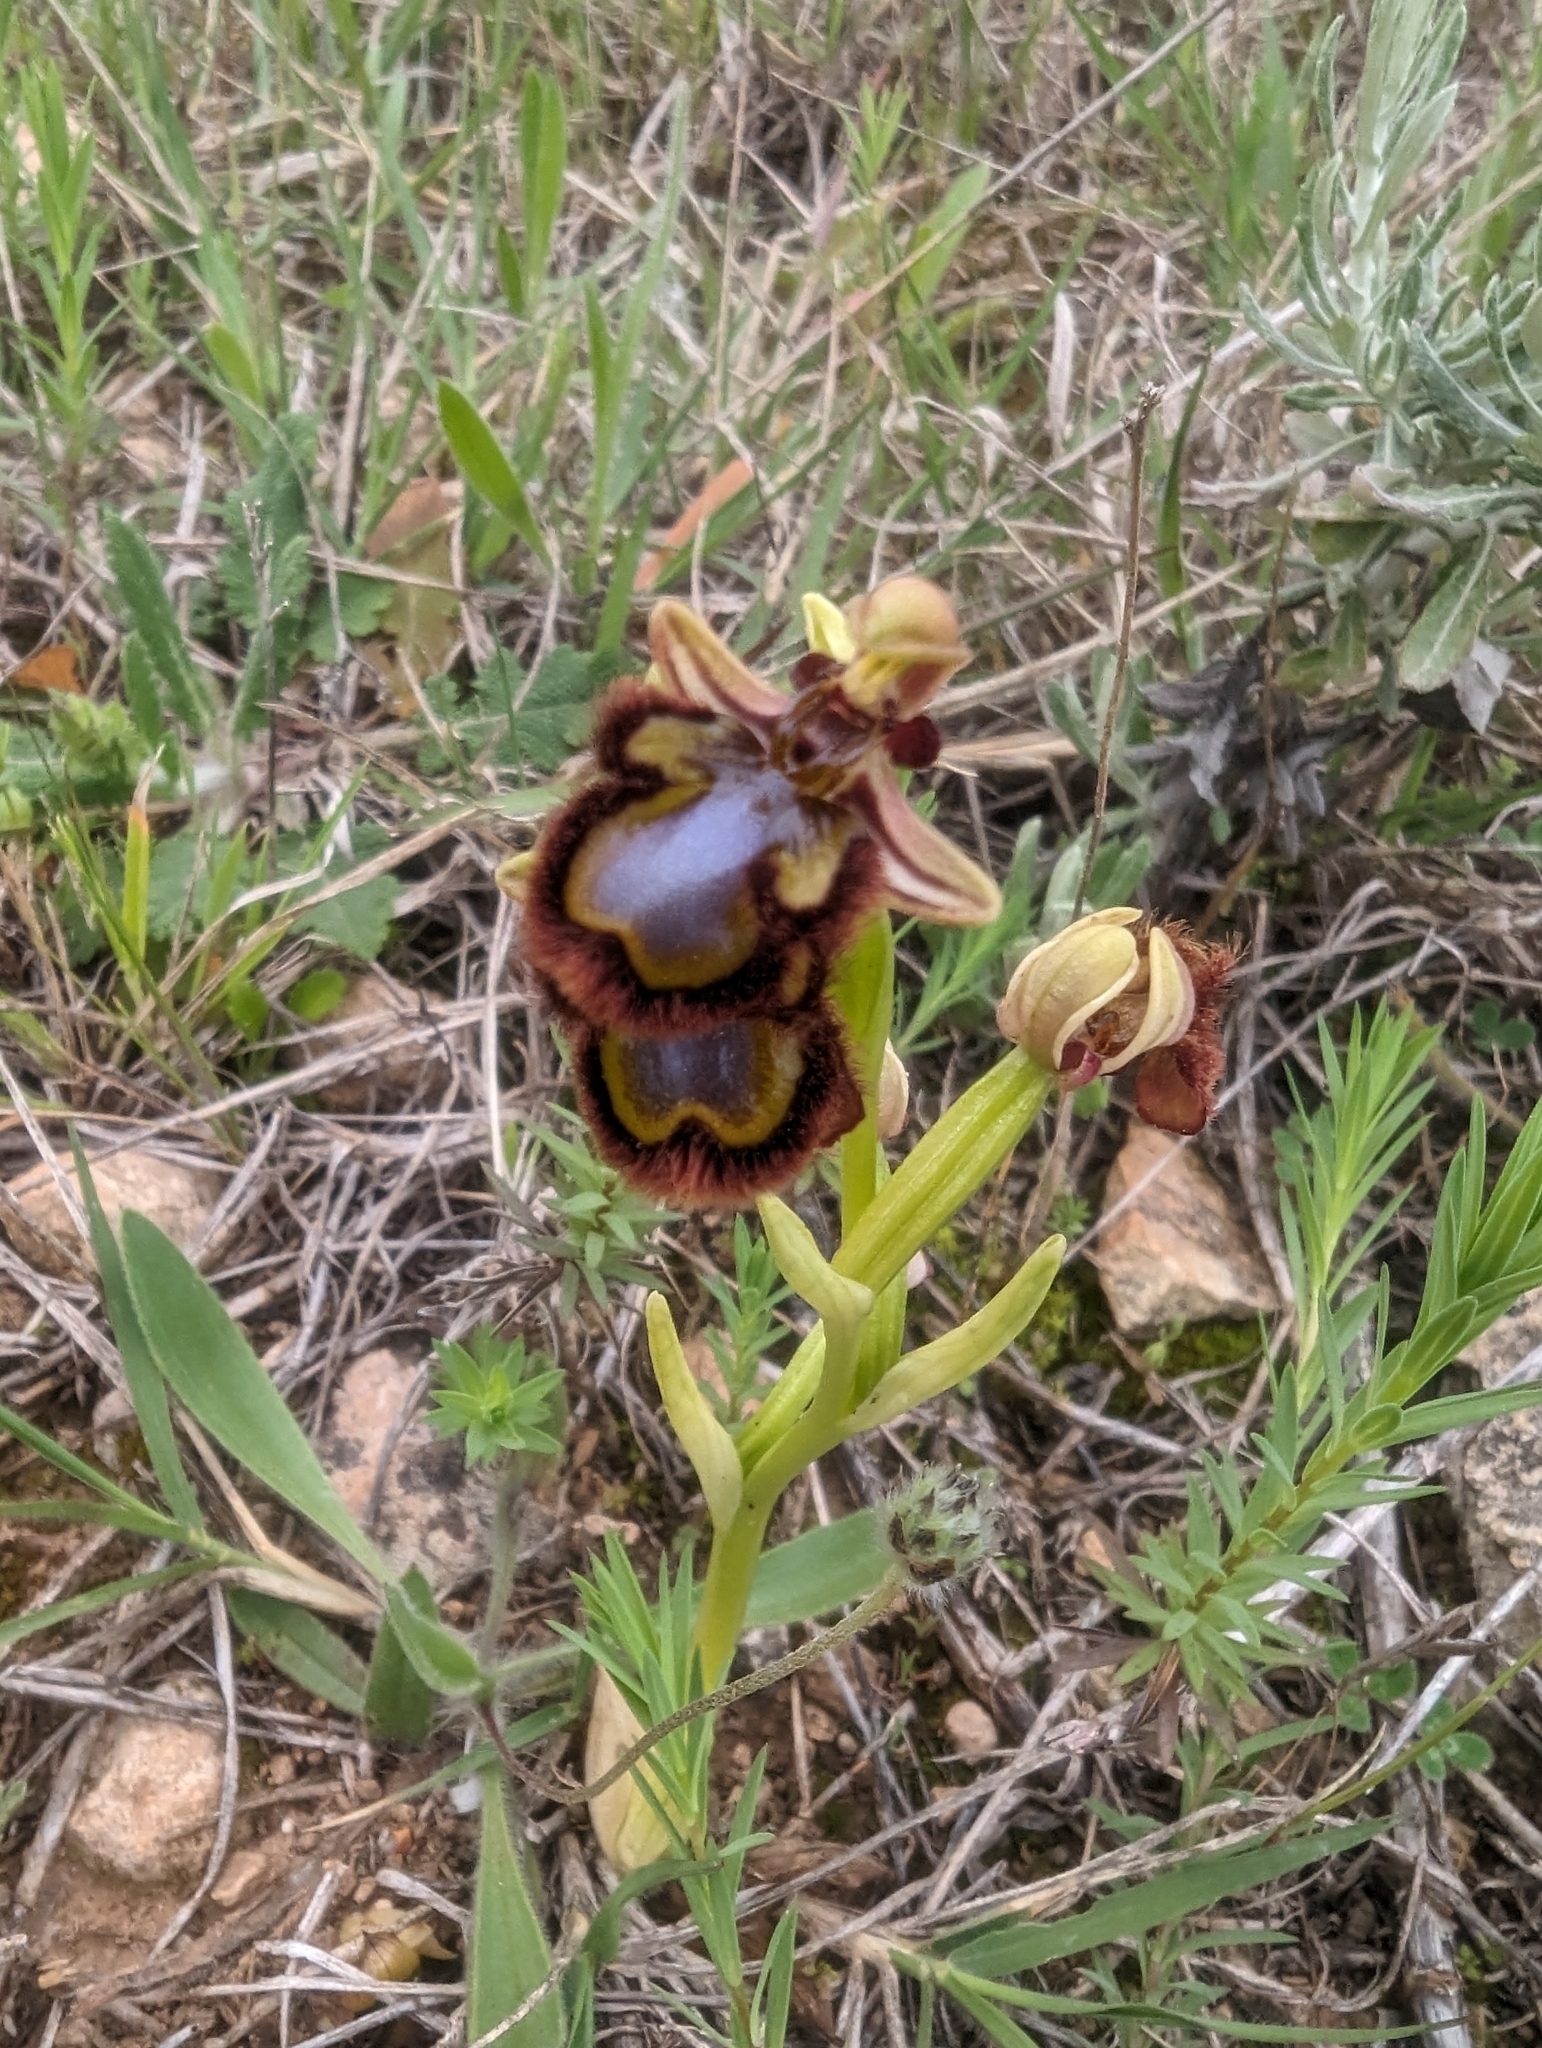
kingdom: Plantae
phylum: Tracheophyta
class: Liliopsida
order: Asparagales
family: Orchidaceae
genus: Ophrys
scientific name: Ophrys speculum
